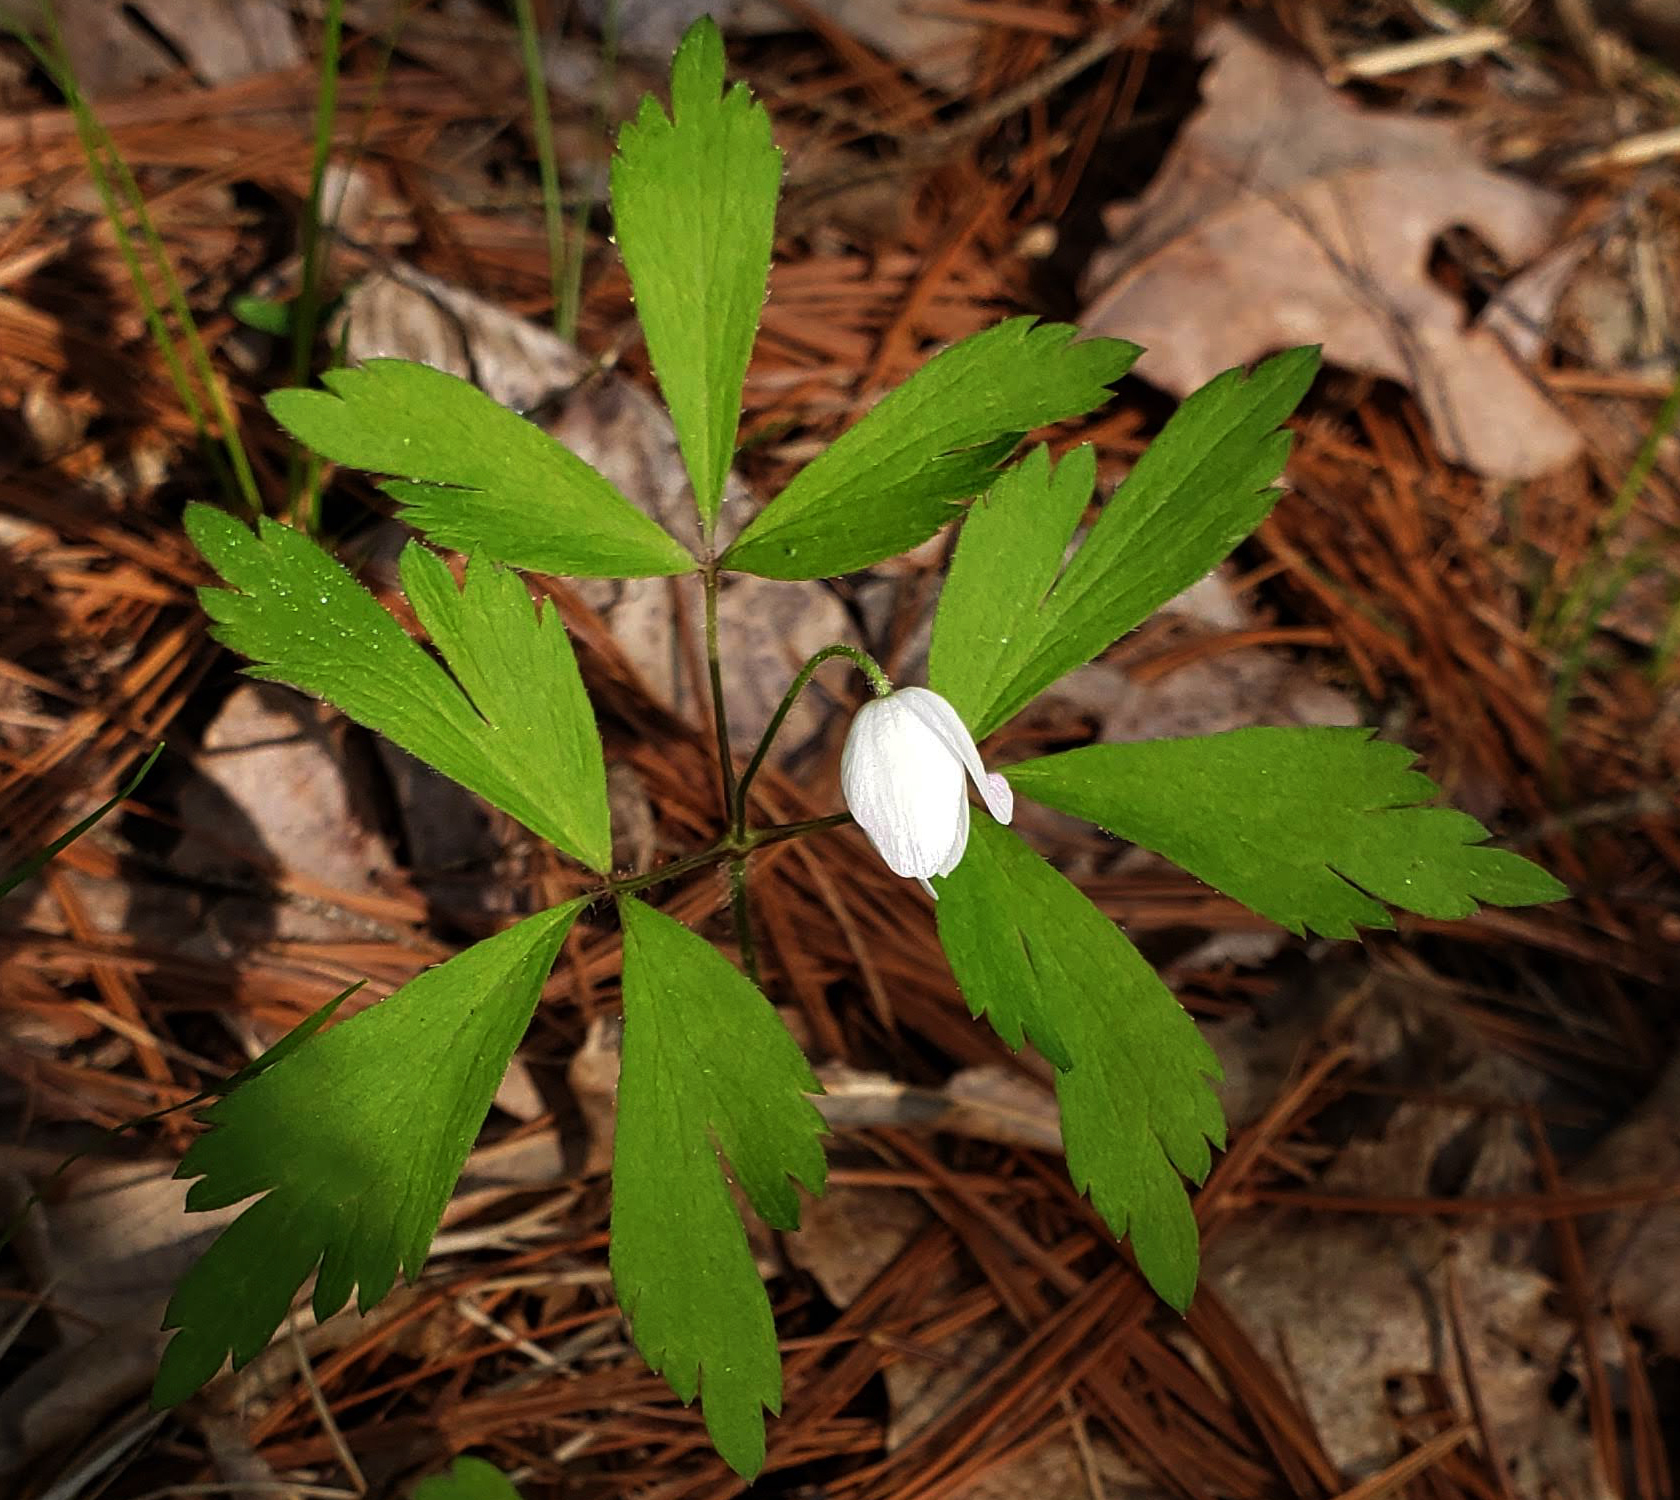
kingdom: Plantae
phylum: Tracheophyta
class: Magnoliopsida
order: Ranunculales
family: Ranunculaceae
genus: Anemone
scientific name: Anemone quinquefolia
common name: Wood anemone
